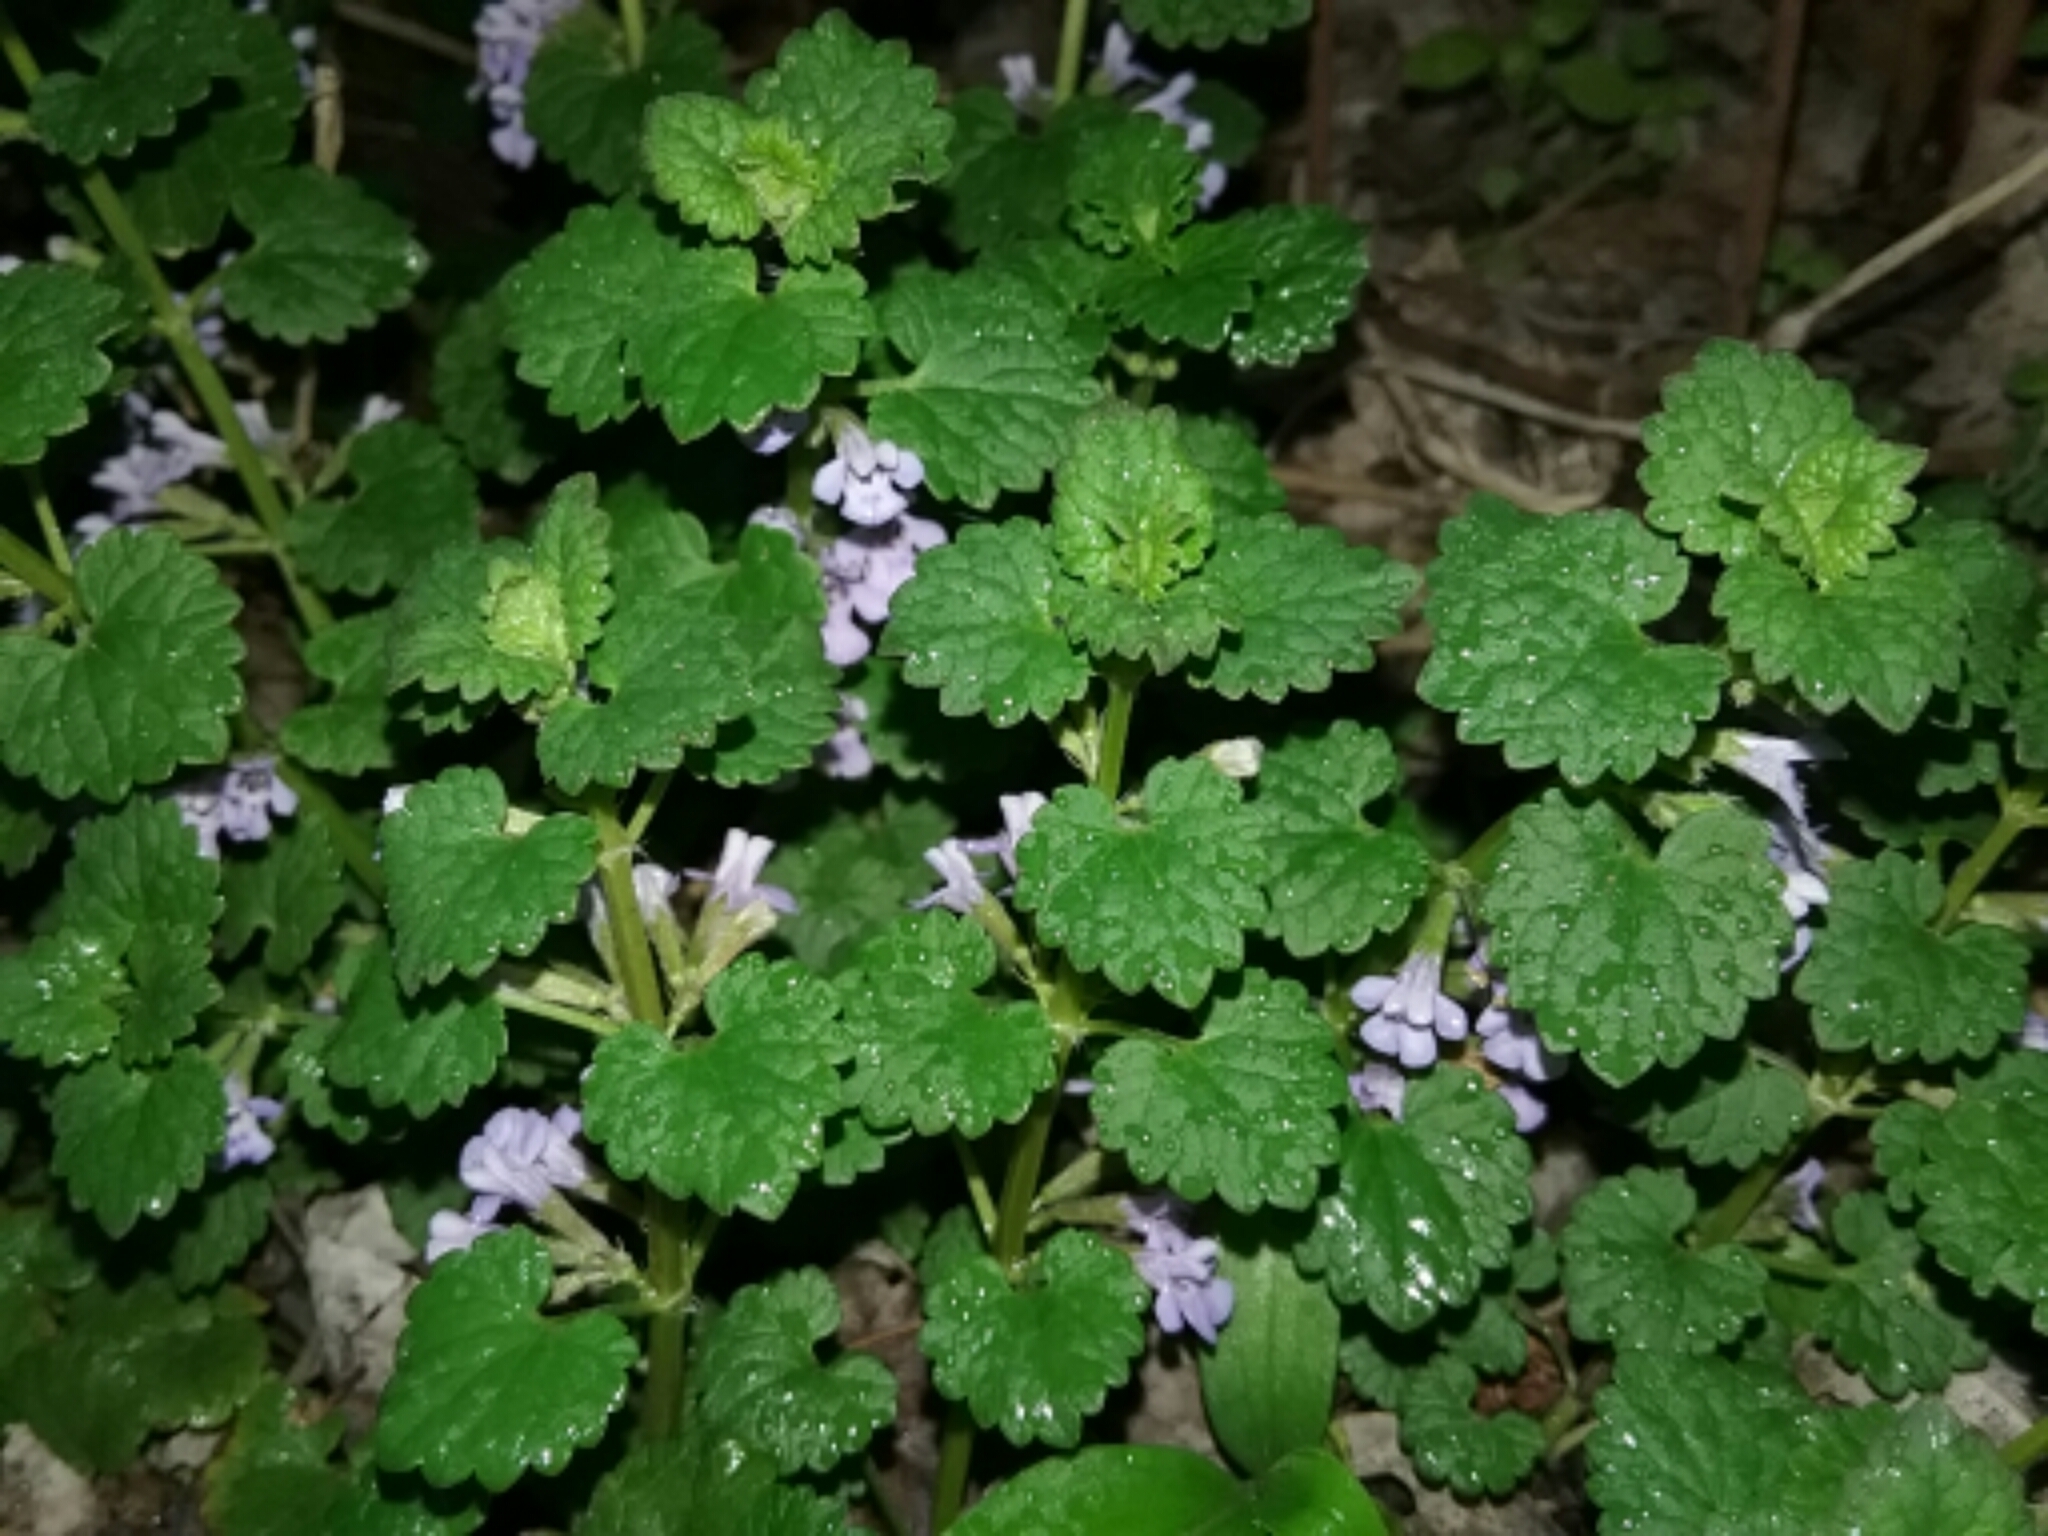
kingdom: Plantae
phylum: Tracheophyta
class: Magnoliopsida
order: Lamiales
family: Lamiaceae
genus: Glechoma
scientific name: Glechoma hederacea
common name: Ground ivy
